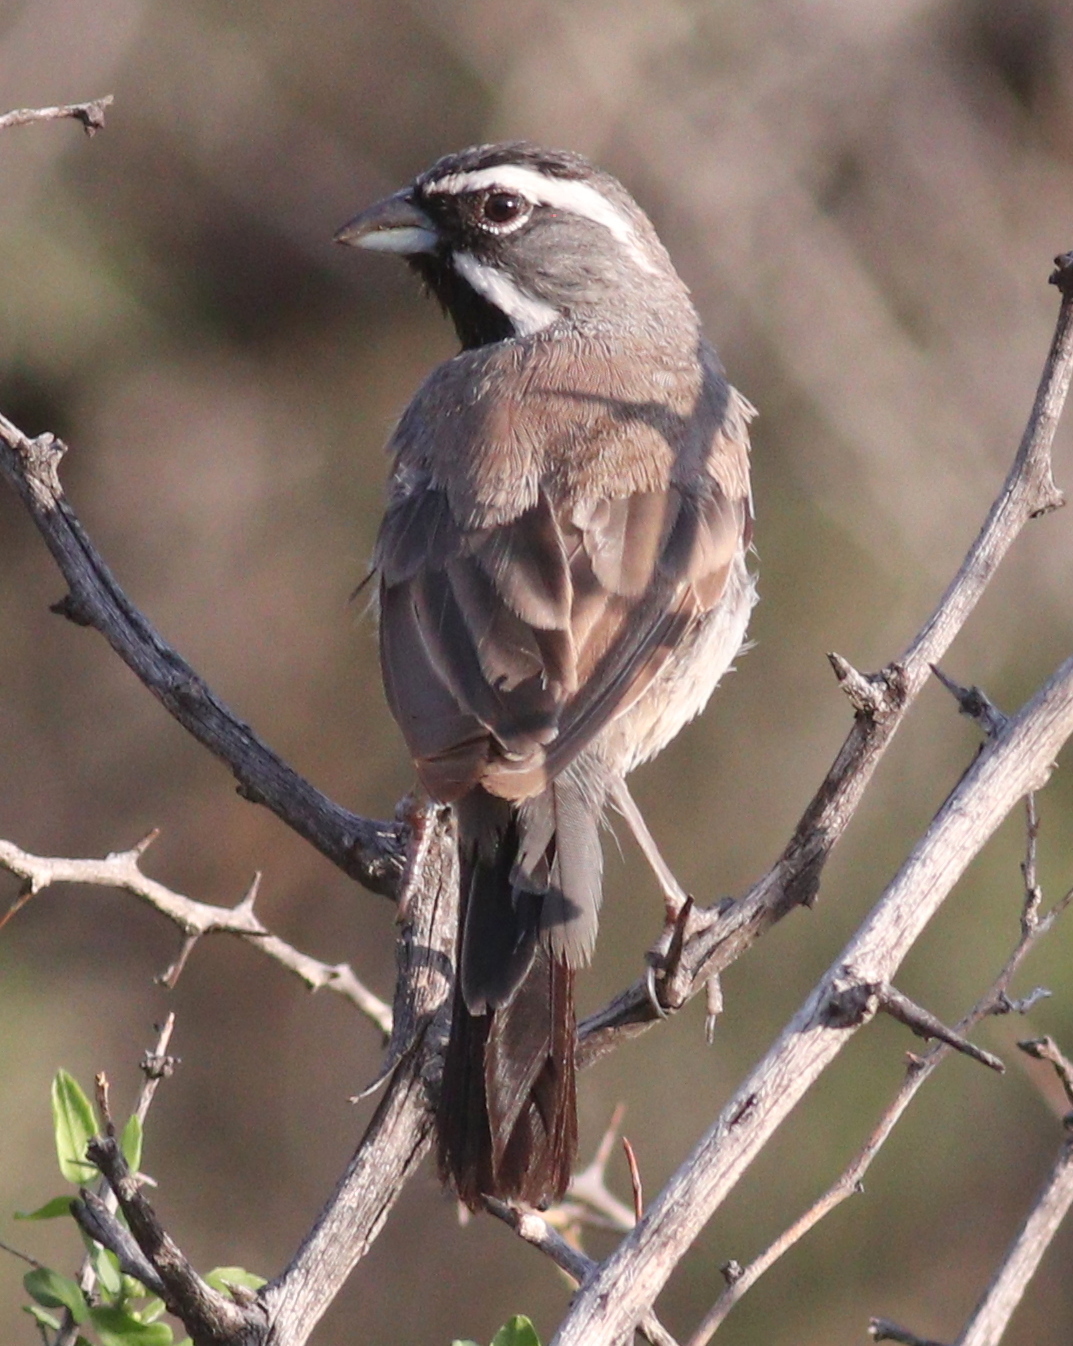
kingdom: Animalia
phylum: Chordata
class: Aves
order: Passeriformes
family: Passerellidae
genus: Amphispiza
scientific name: Amphispiza bilineata
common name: Black-throated sparrow
